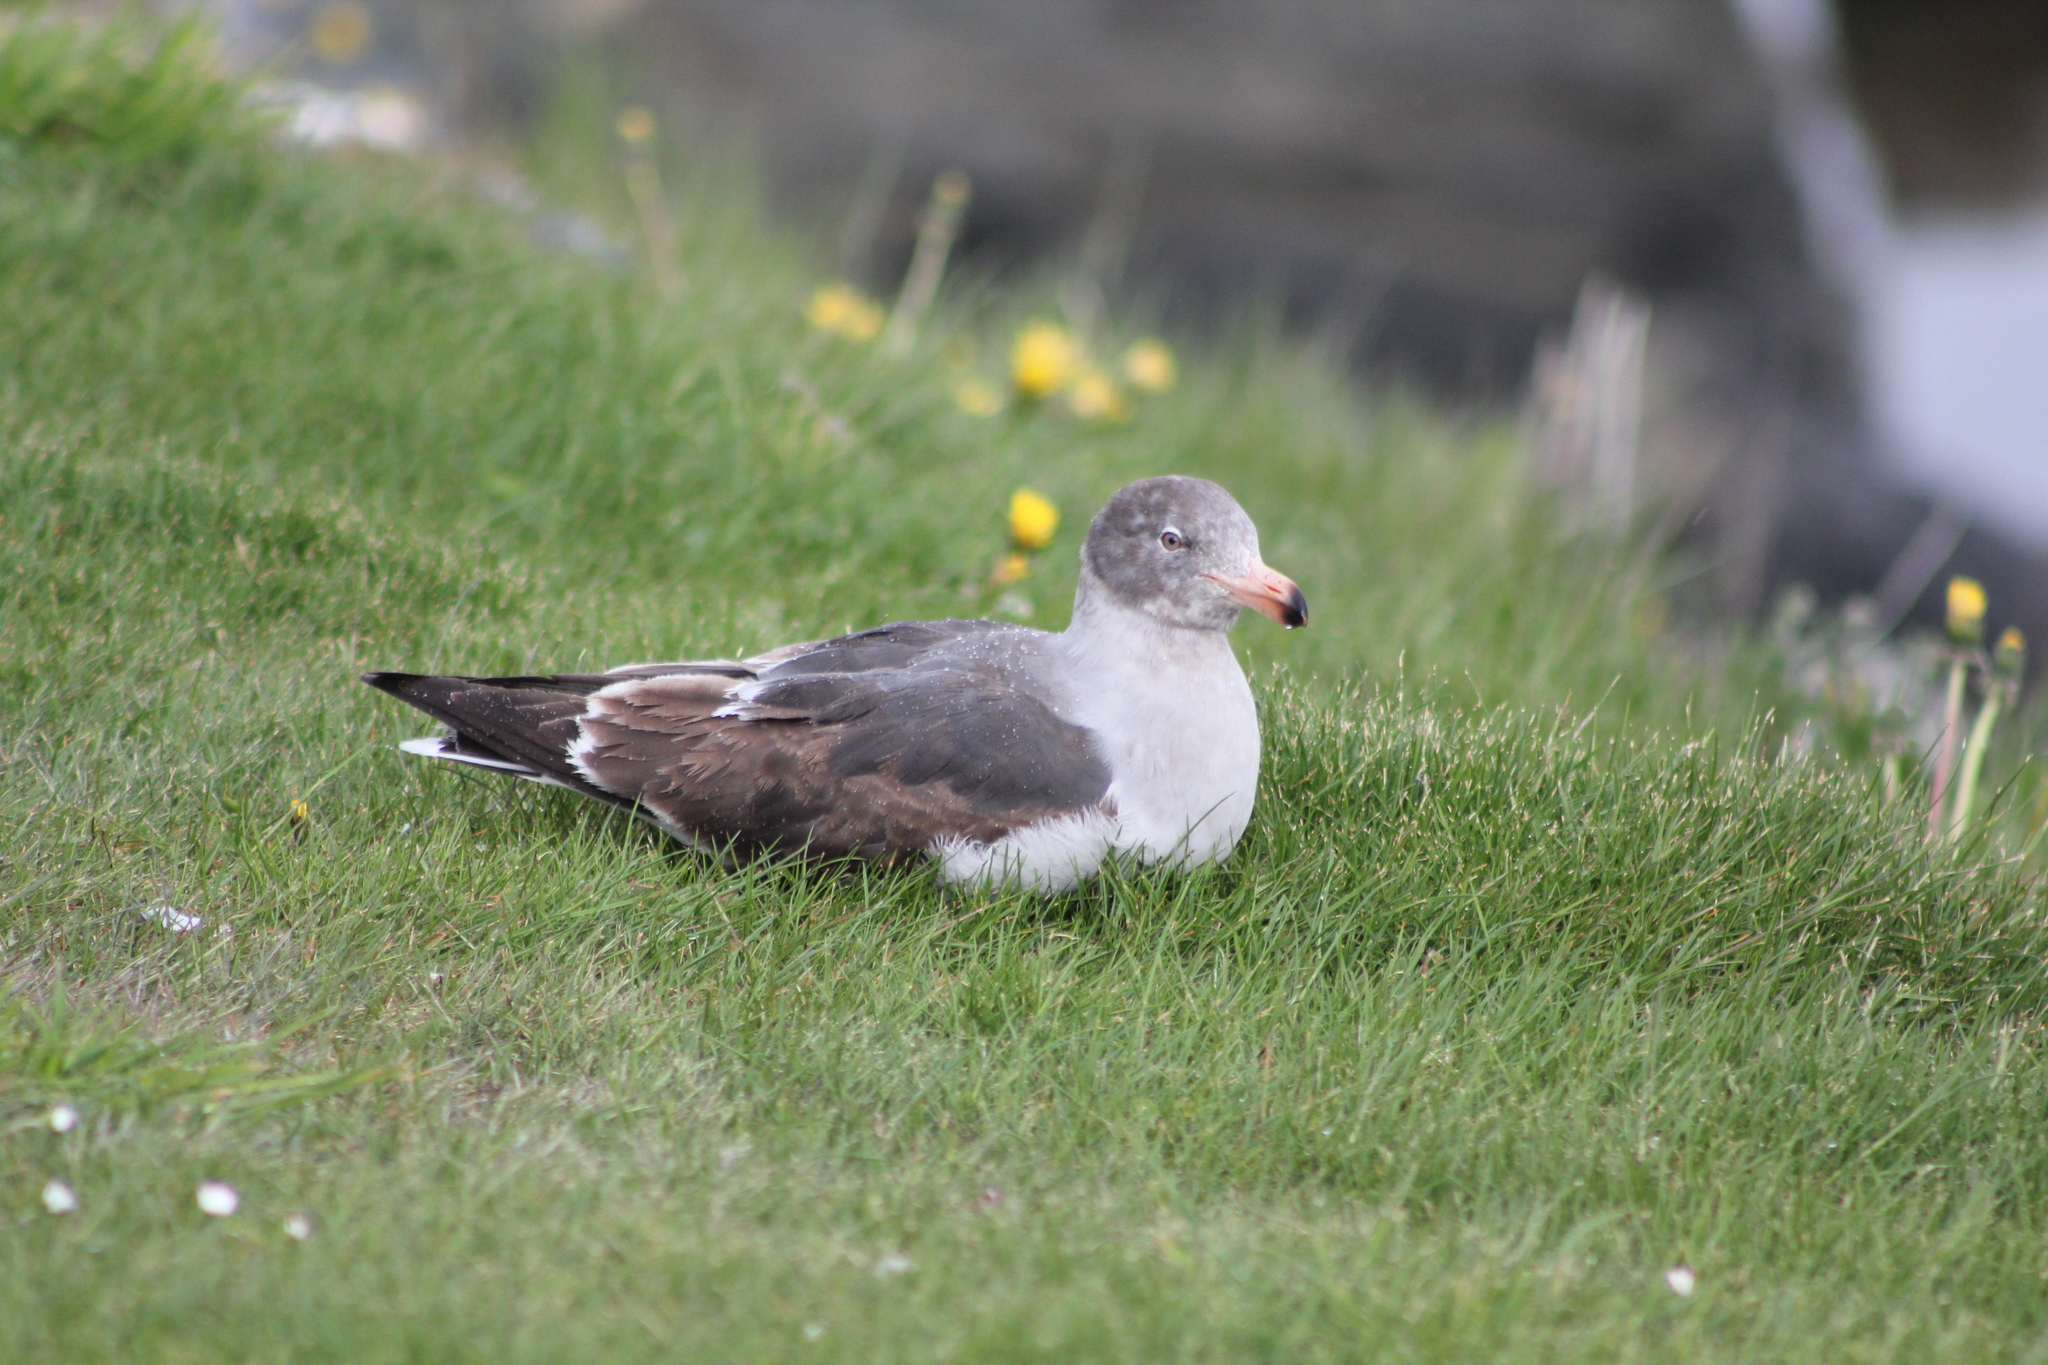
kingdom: Animalia
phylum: Chordata
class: Aves
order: Charadriiformes
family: Laridae
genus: Leucophaeus
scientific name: Leucophaeus scoresbii
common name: Dolphin gull
